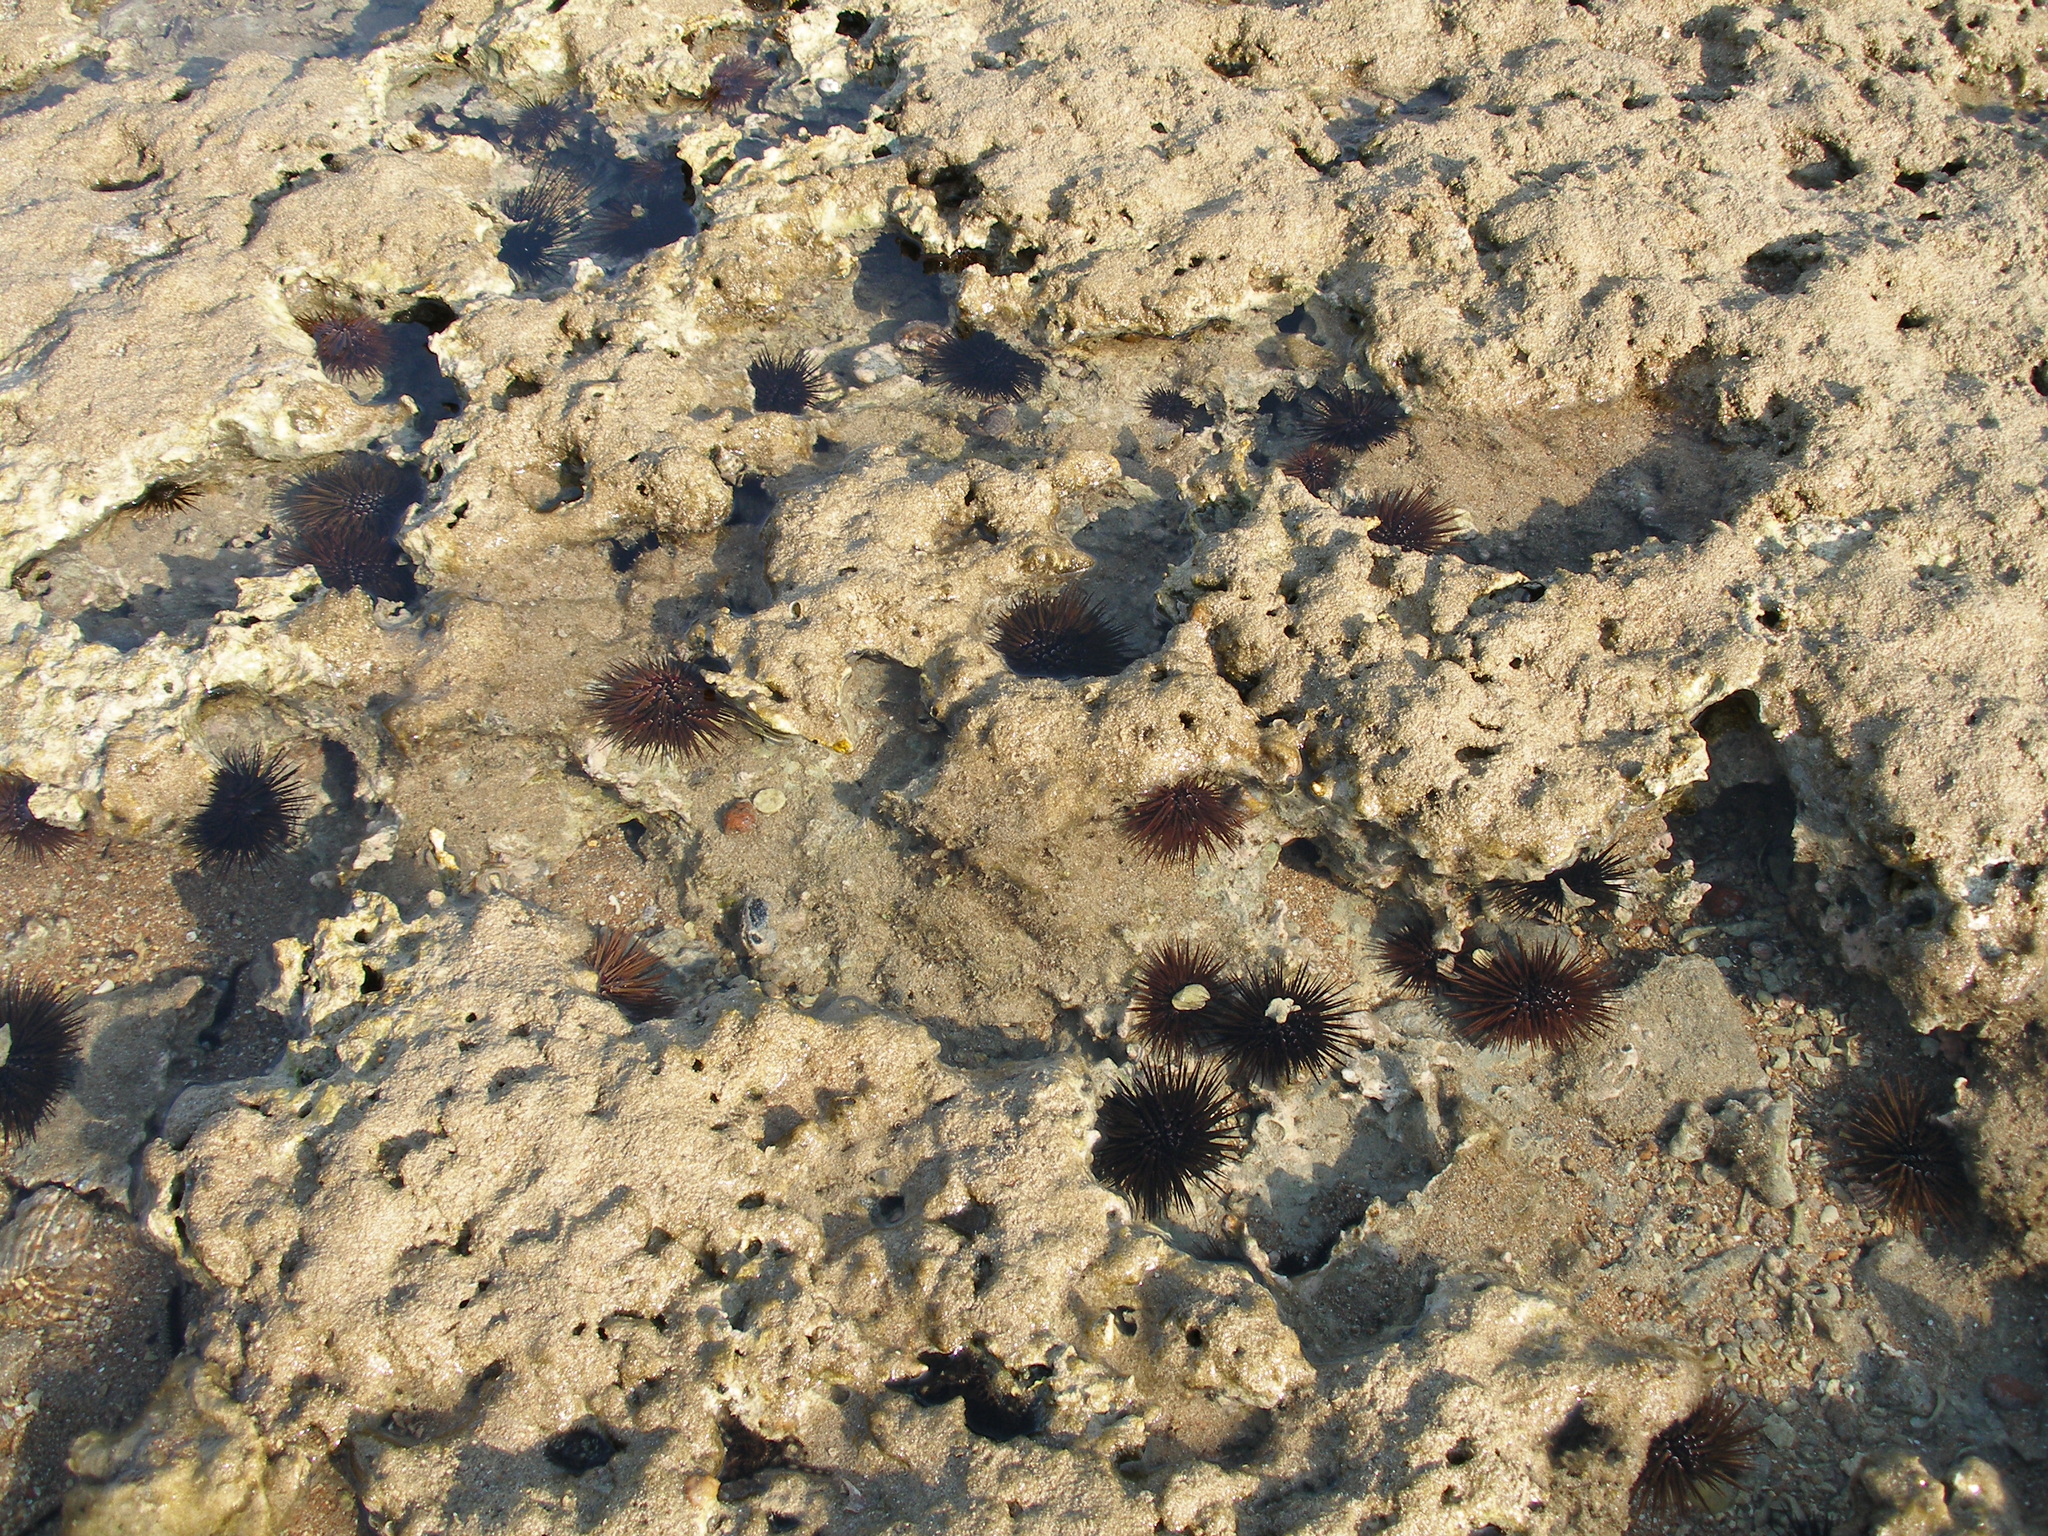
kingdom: Animalia
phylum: Echinodermata
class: Echinoidea
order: Camarodonta
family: Echinometridae
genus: Echinometra
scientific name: Echinometra mathaei
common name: Rock-boring urchin
